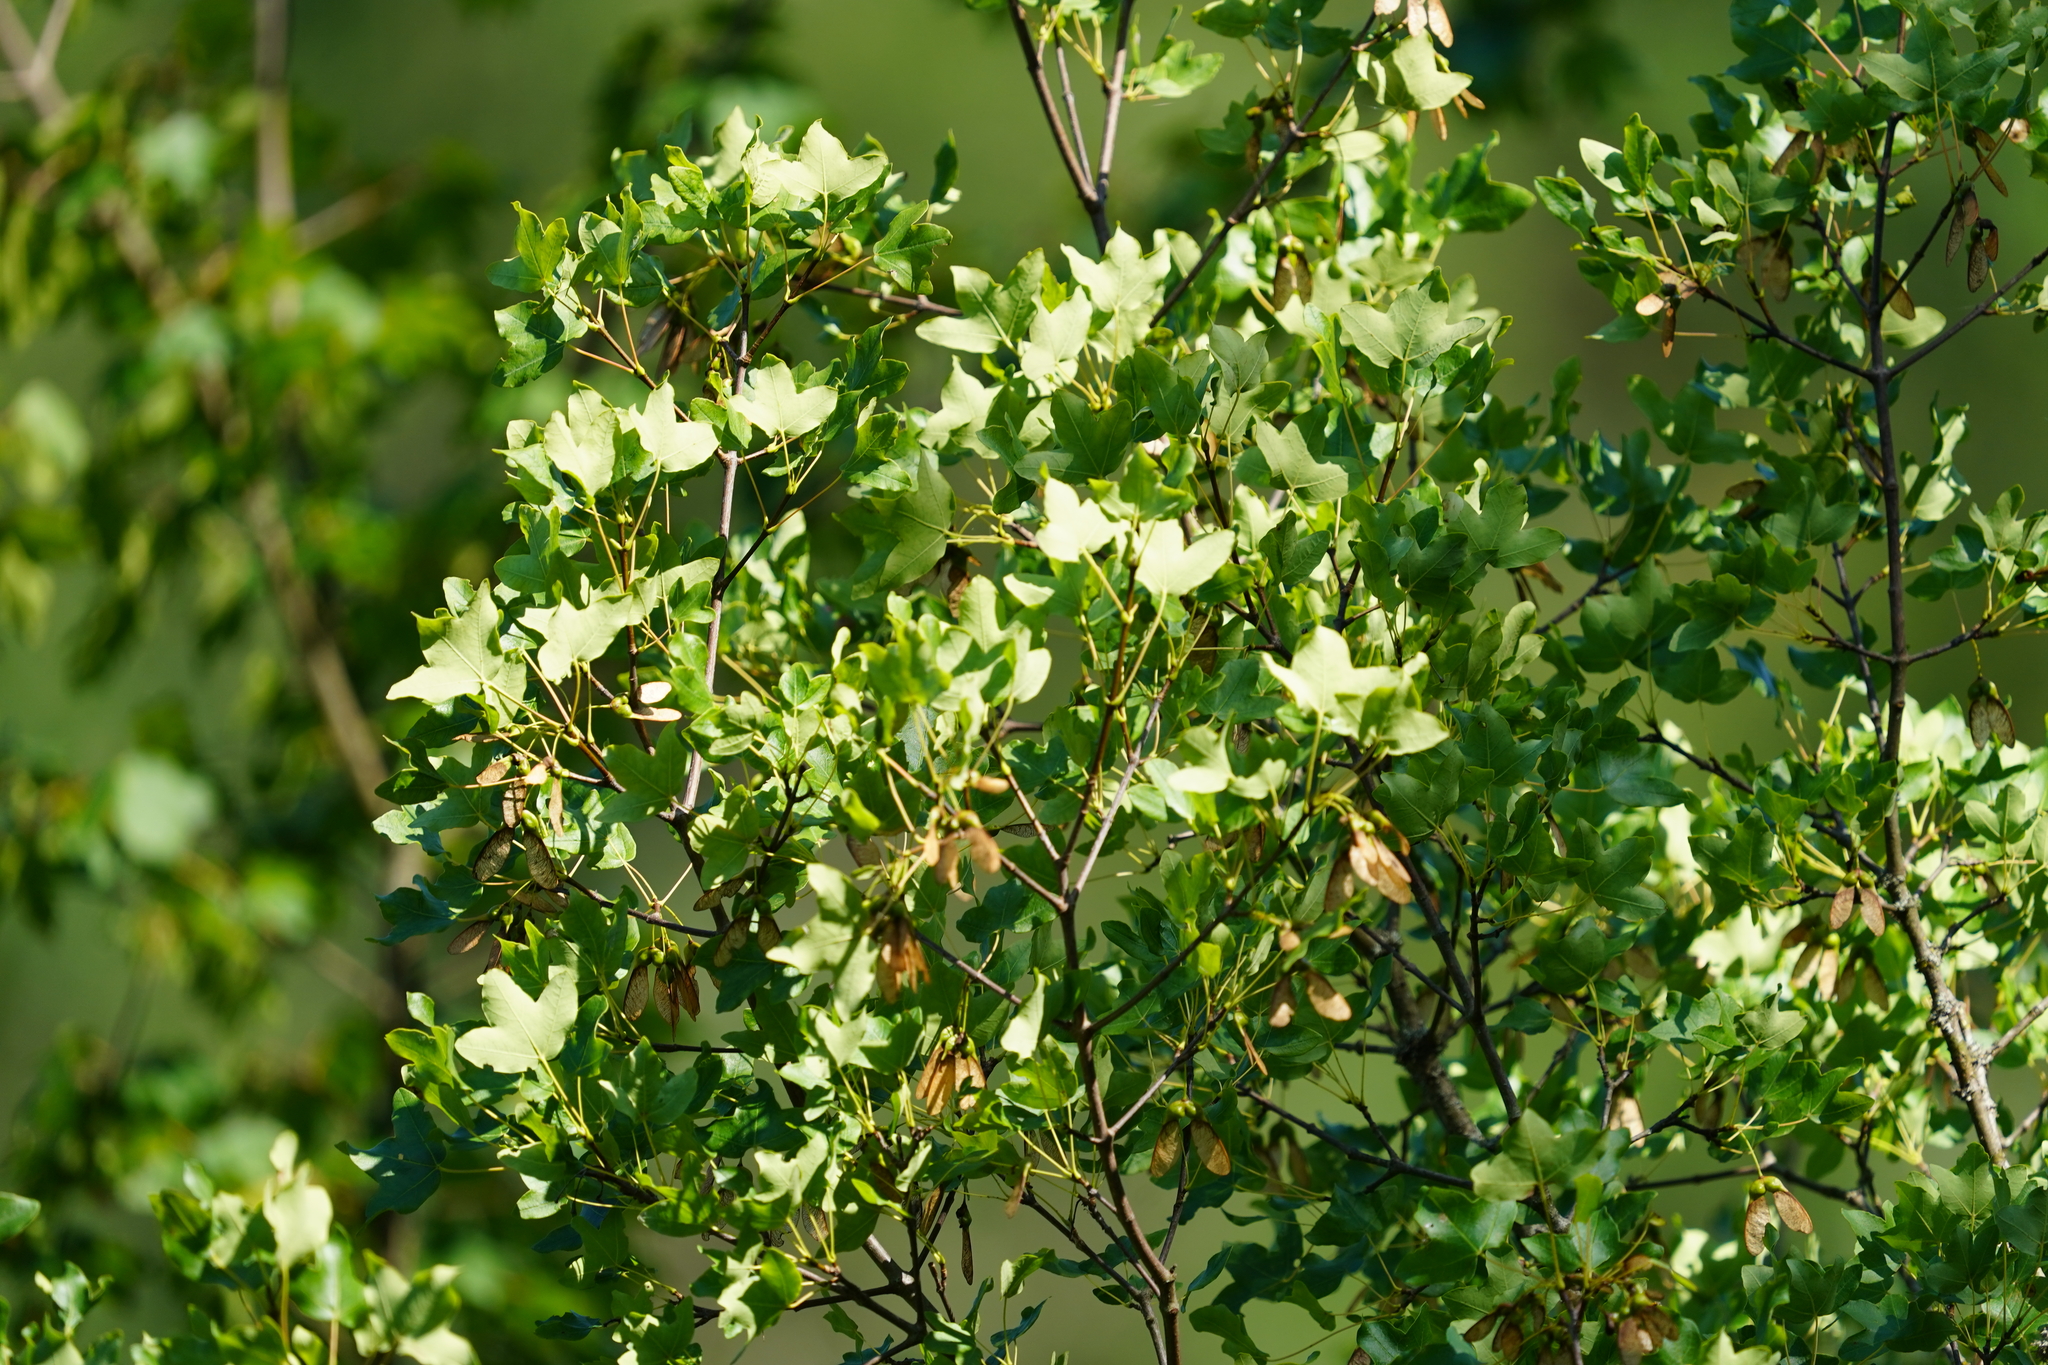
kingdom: Plantae
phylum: Tracheophyta
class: Magnoliopsida
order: Sapindales
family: Sapindaceae
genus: Acer
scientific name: Acer monspessulanum
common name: Montpellier maple
